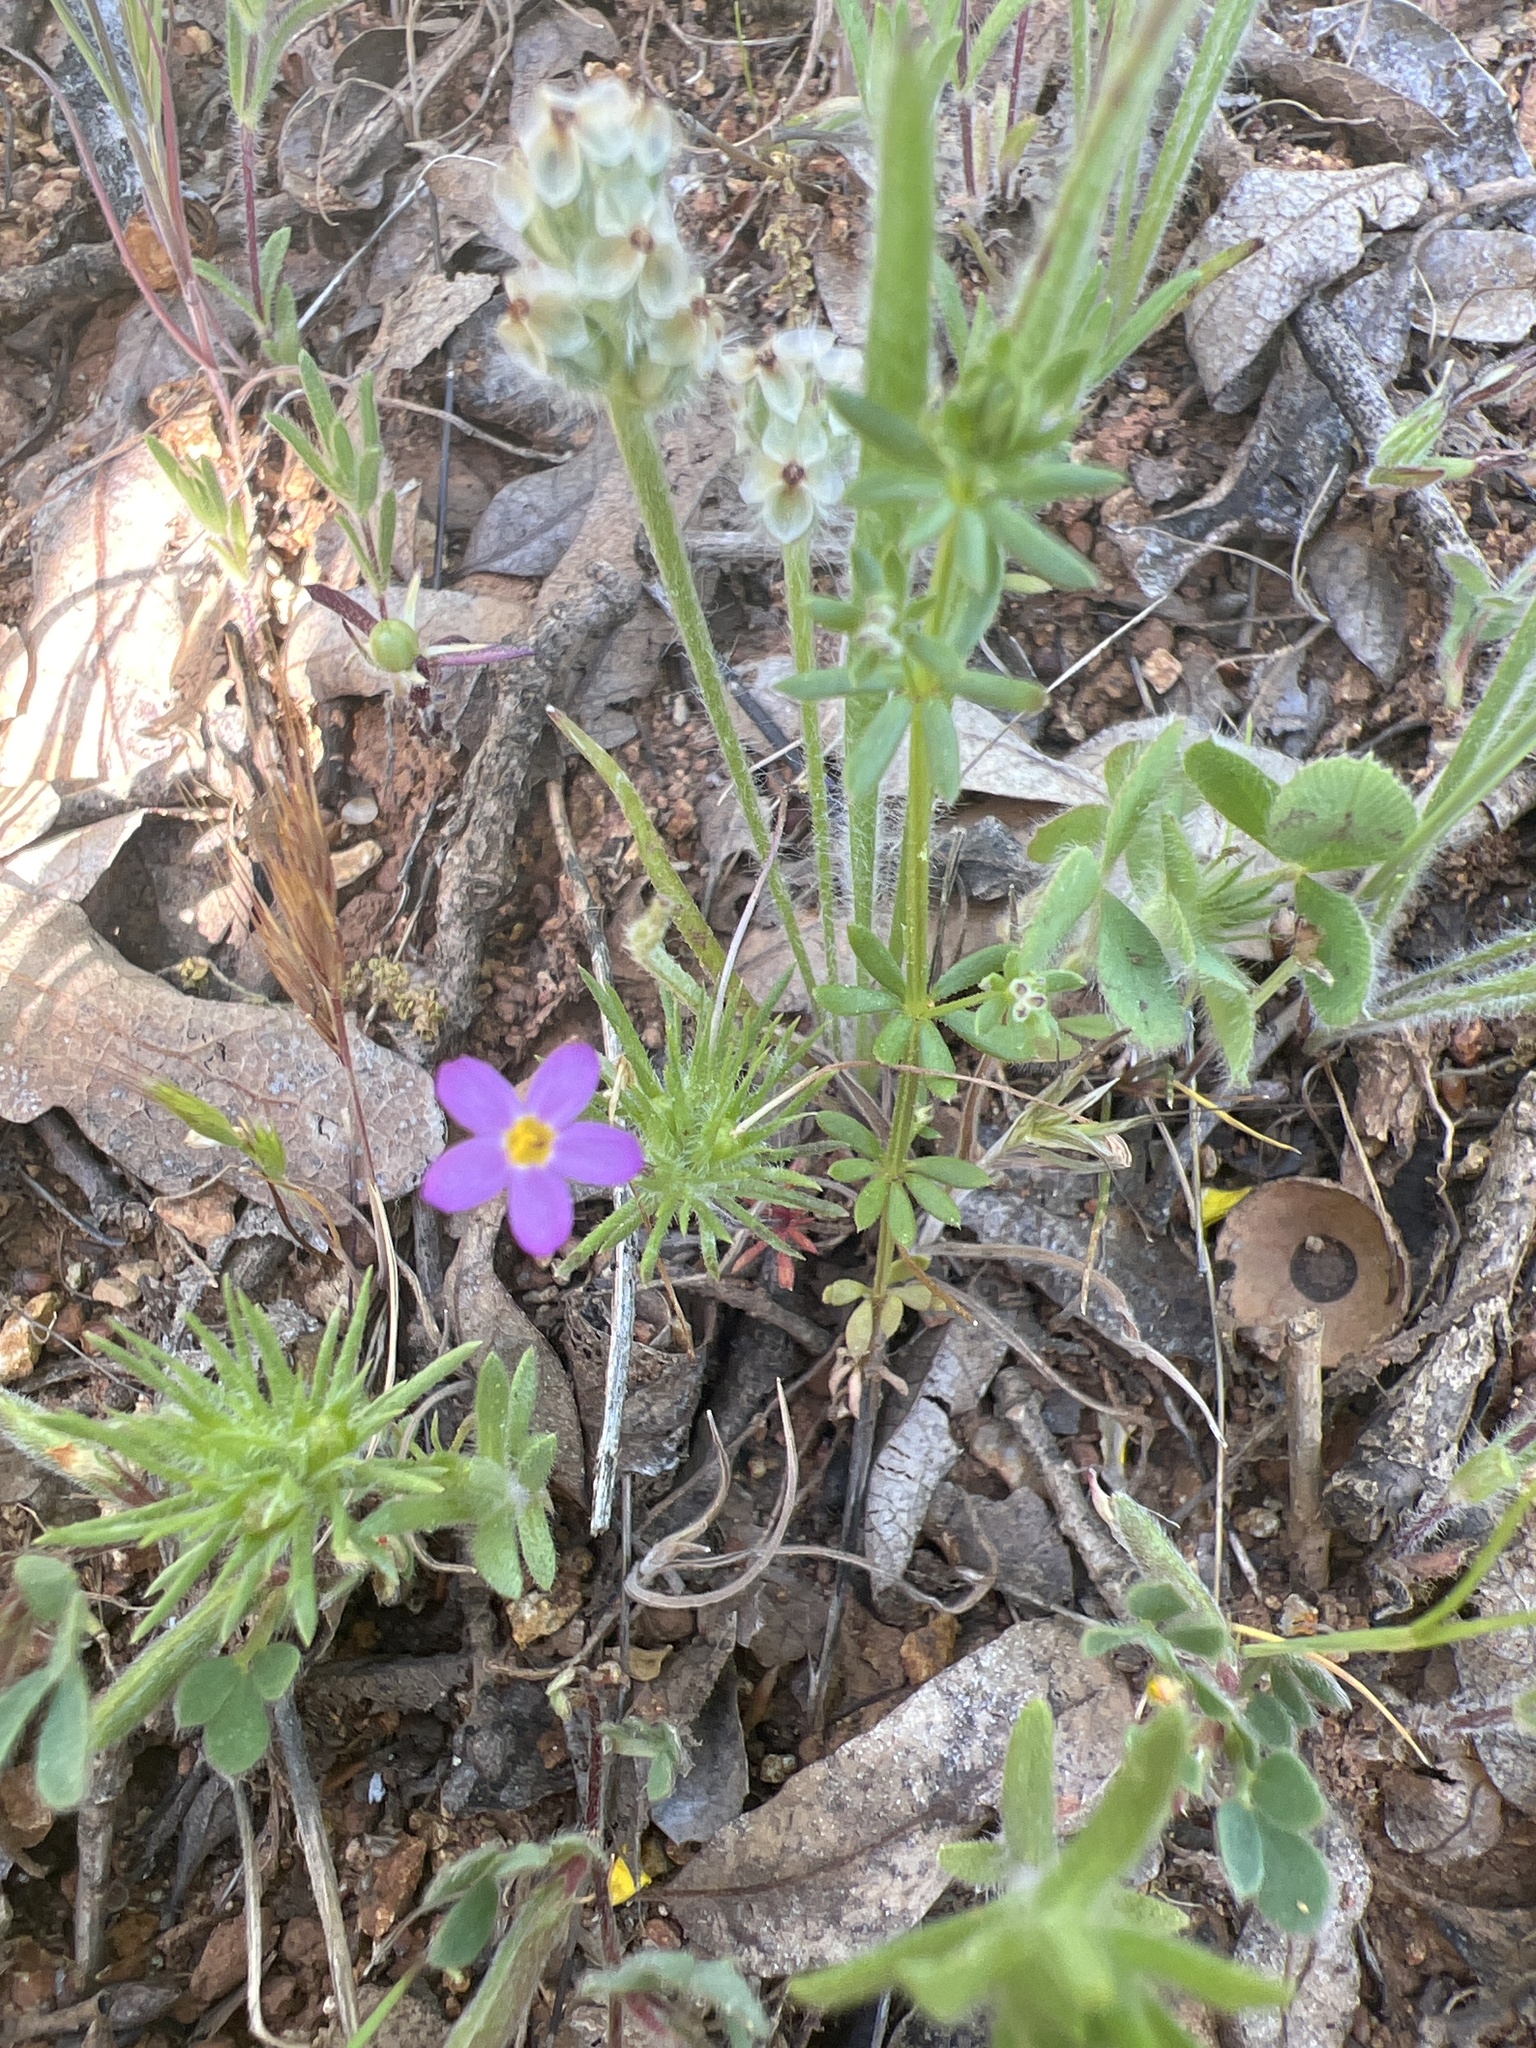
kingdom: Plantae
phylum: Tracheophyta
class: Magnoliopsida
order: Ericales
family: Polemoniaceae
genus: Leptosiphon
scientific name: Leptosiphon bicolor
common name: True babystars
